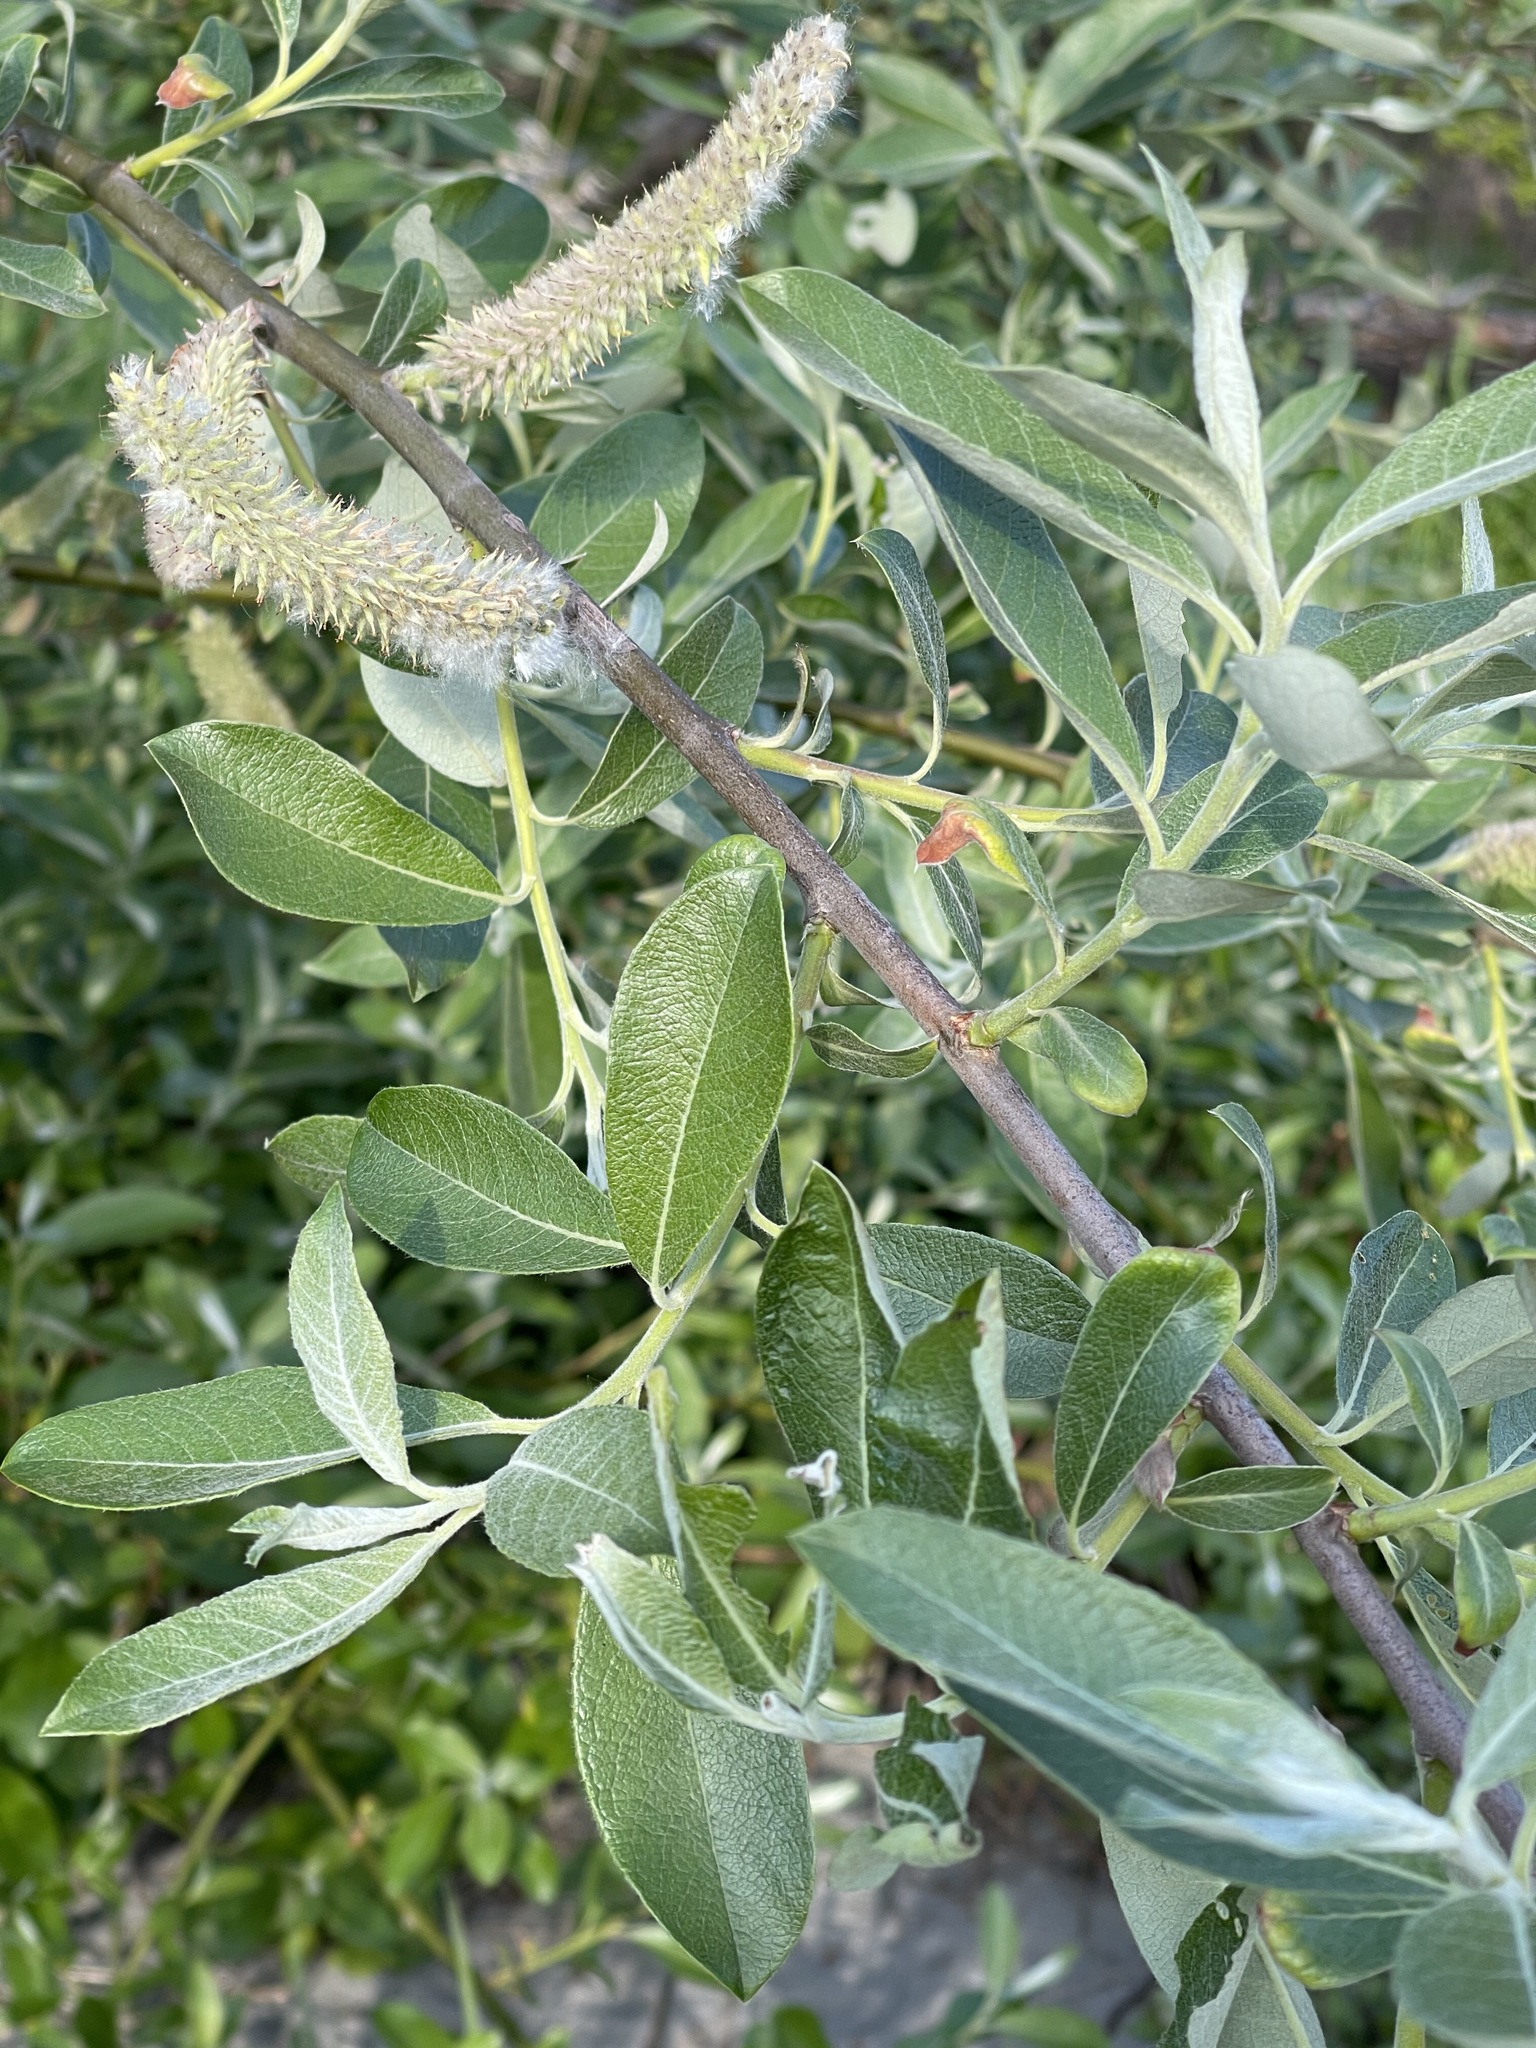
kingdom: Plantae
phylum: Tracheophyta
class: Magnoliopsida
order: Malpighiales
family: Salicaceae
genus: Salix
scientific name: Salix sitchensis
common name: Sitka willow
